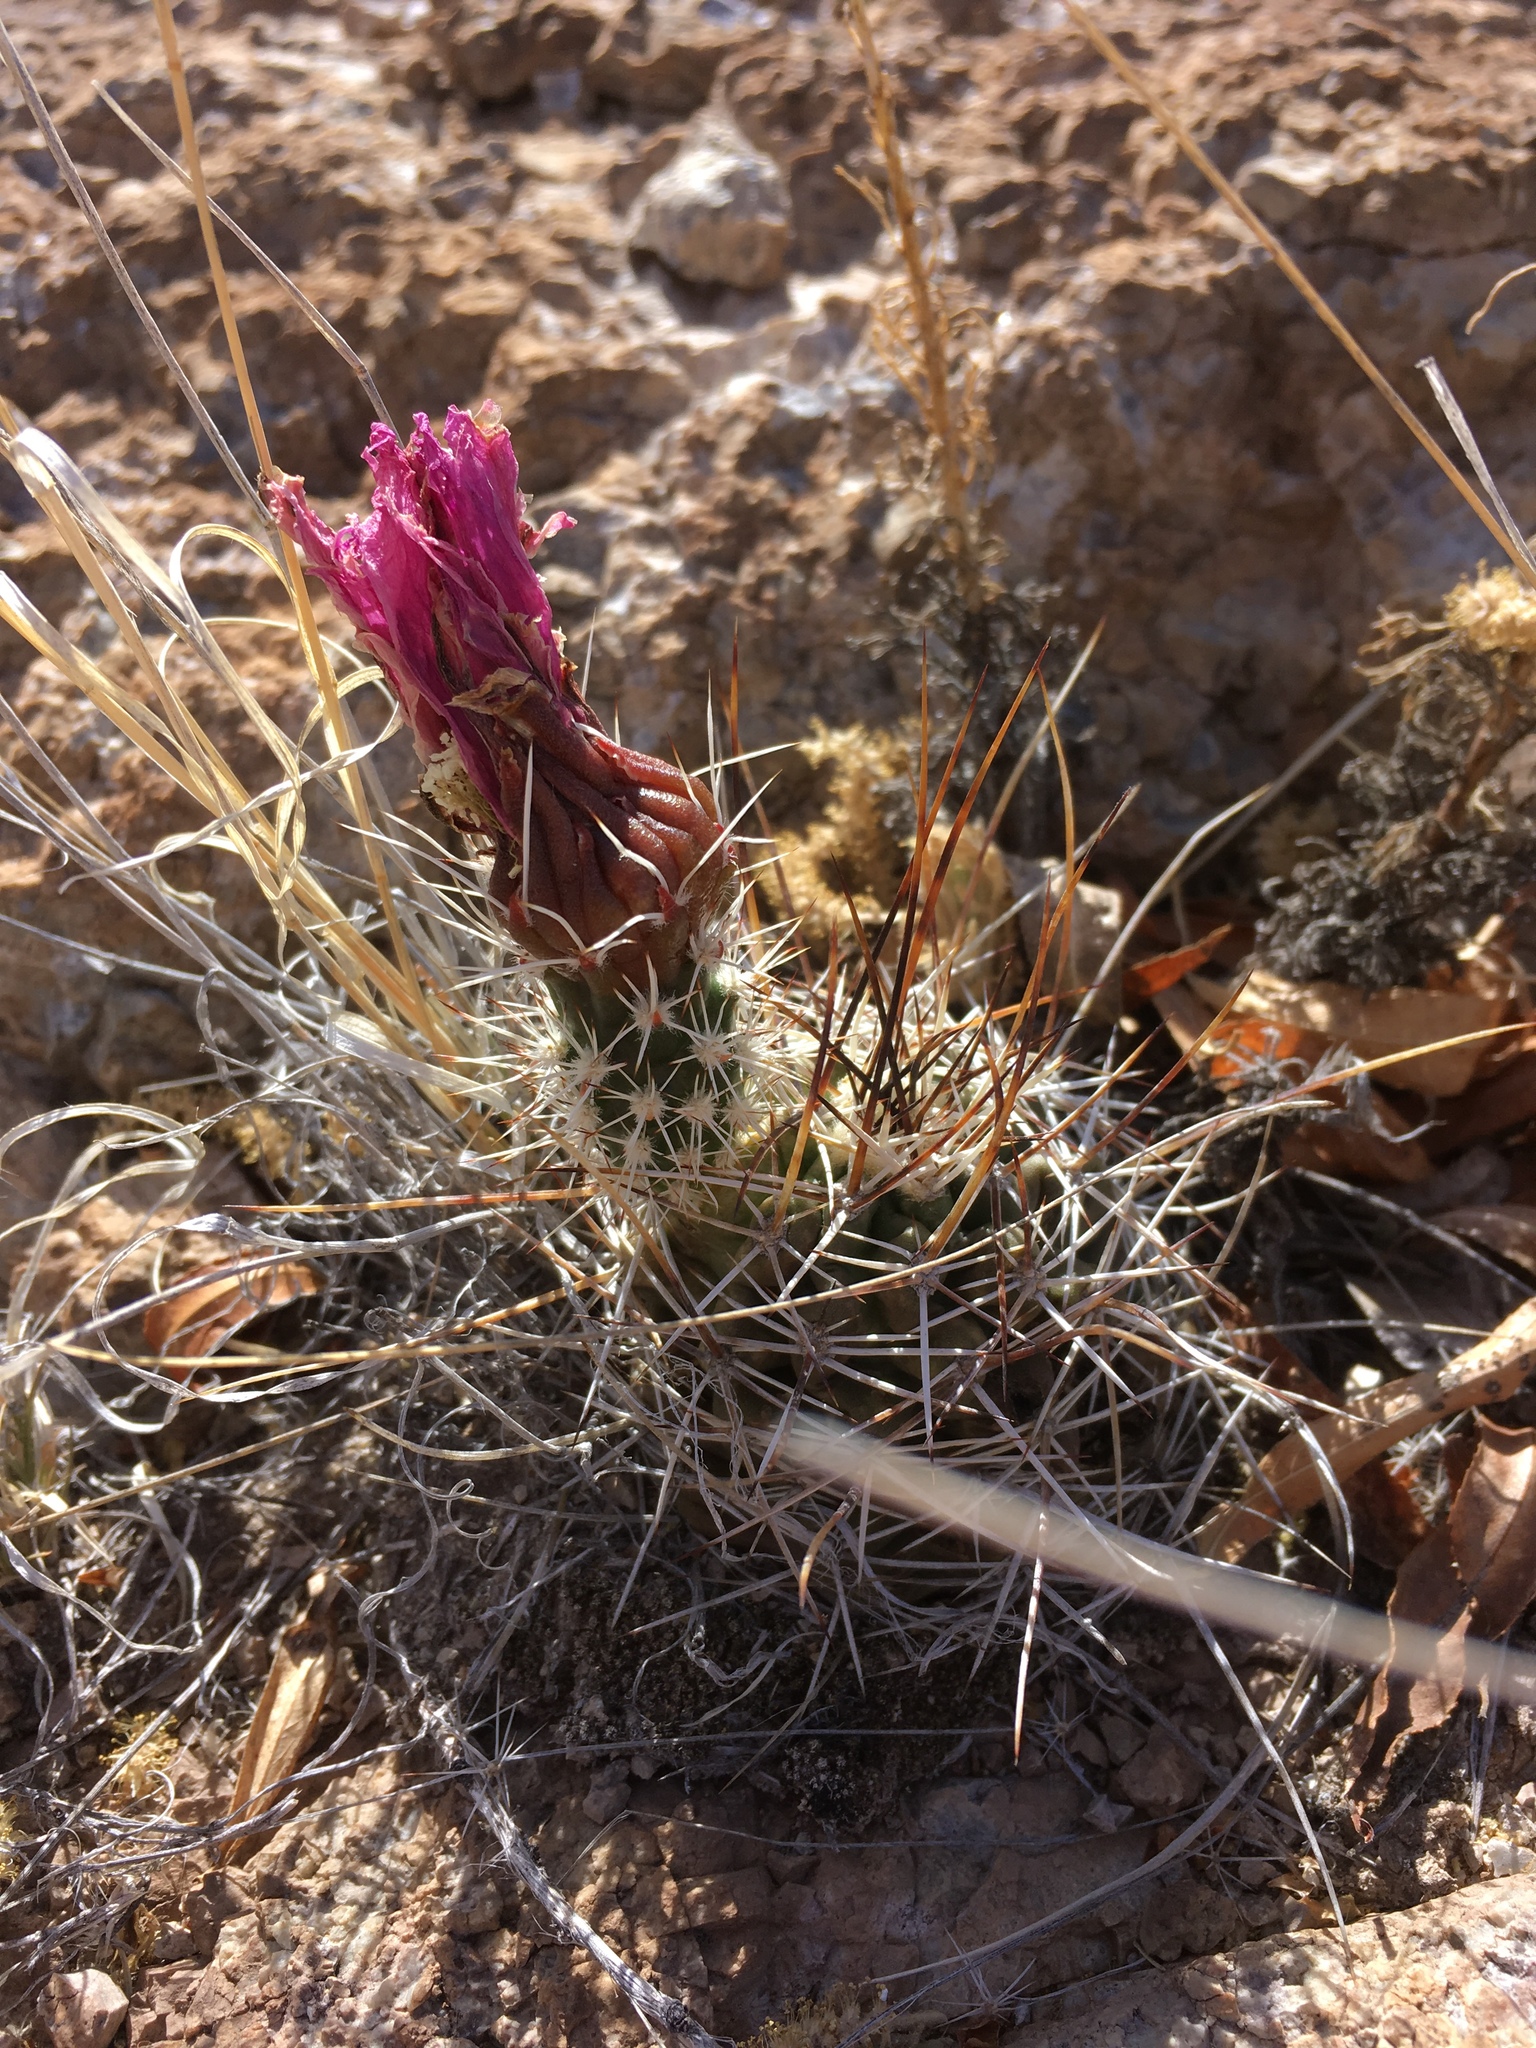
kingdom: Plantae
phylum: Tracheophyta
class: Magnoliopsida
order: Caryophyllales
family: Cactaceae
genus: Echinocereus
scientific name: Echinocereus fendleri
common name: Fendler's hedgehog cactus
